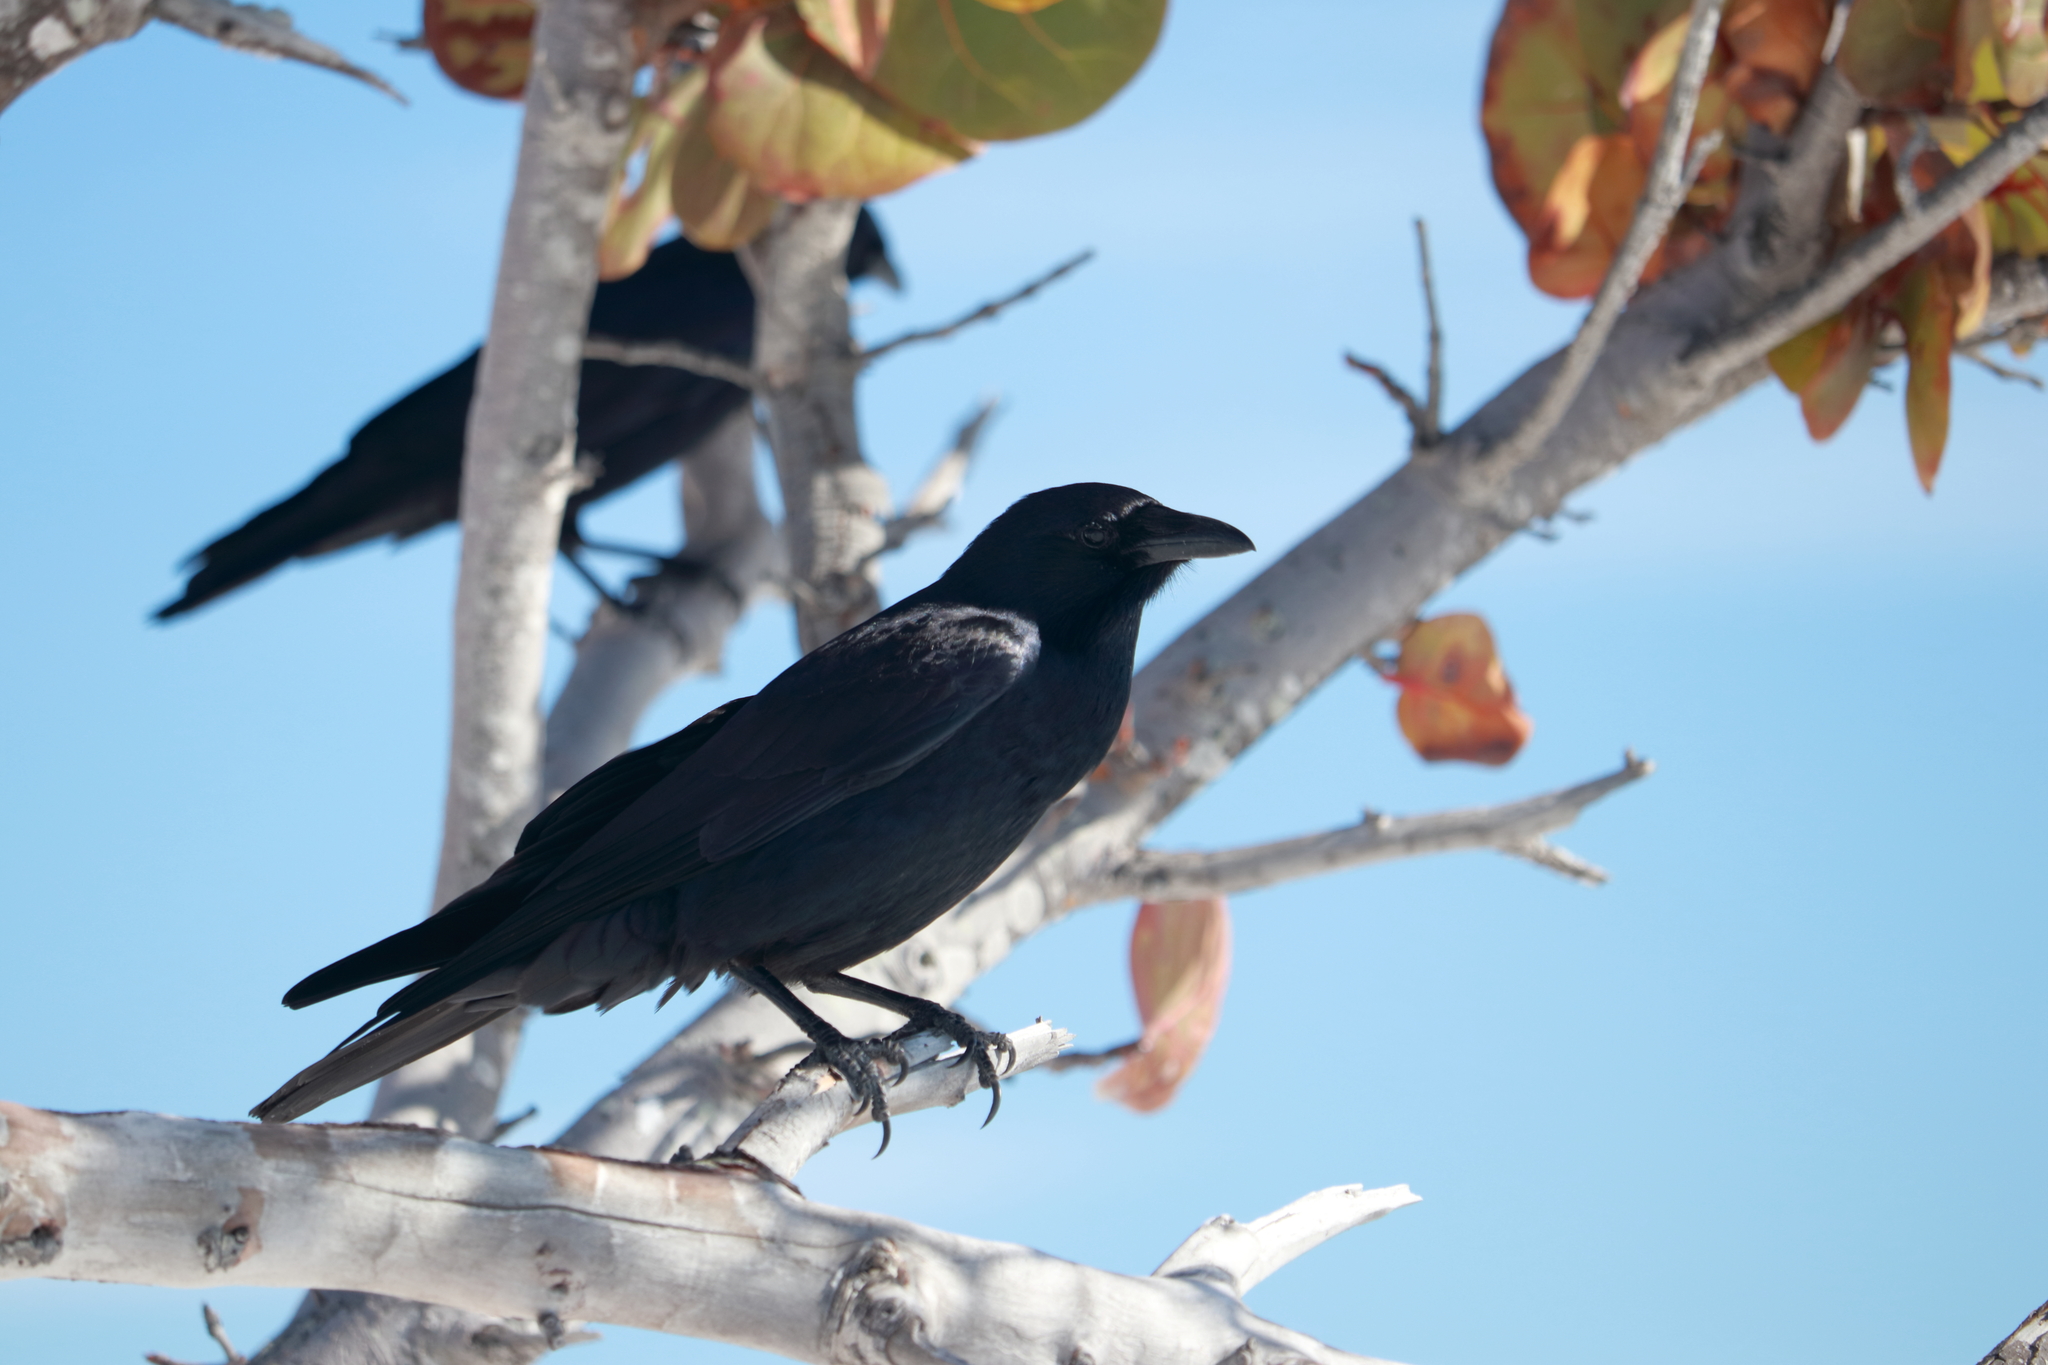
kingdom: Animalia
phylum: Chordata
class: Aves
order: Passeriformes
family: Corvidae
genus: Corvus
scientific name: Corvus ossifragus
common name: Fish crow
